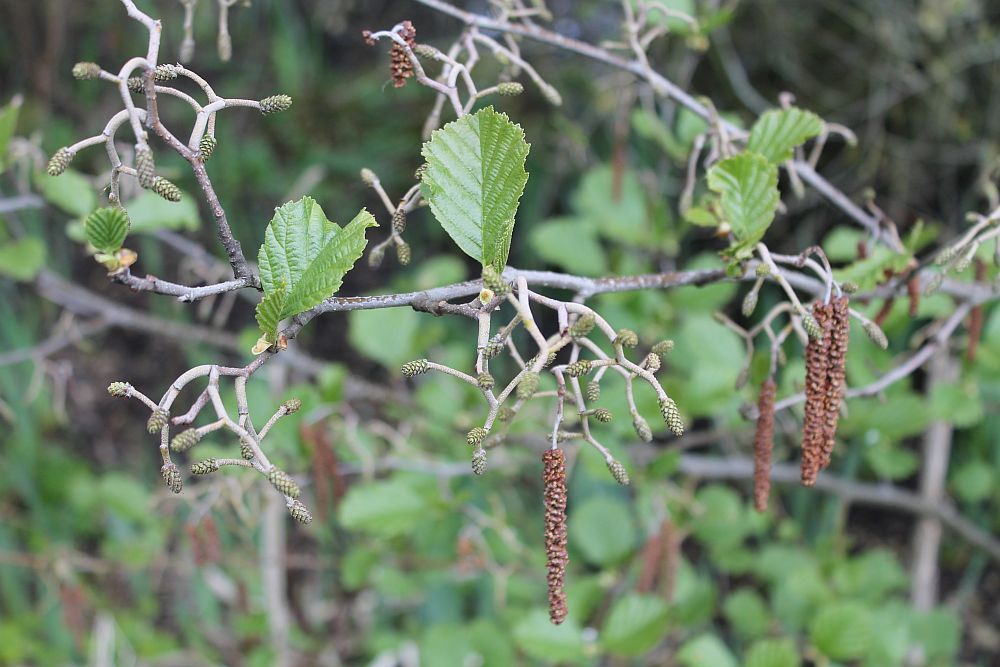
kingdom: Plantae
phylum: Tracheophyta
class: Magnoliopsida
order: Fagales
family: Betulaceae
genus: Alnus
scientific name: Alnus glutinosa
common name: Black alder
